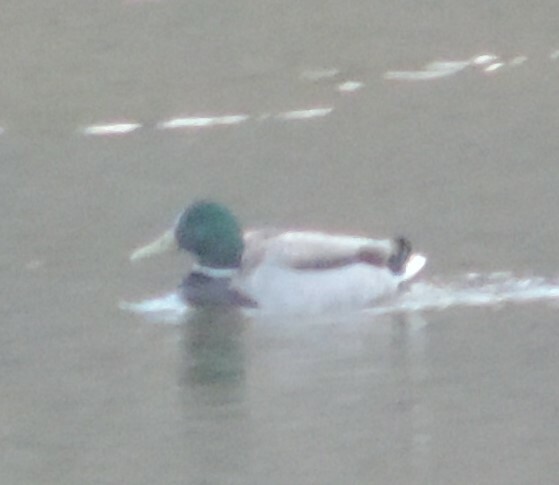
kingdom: Animalia
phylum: Chordata
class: Aves
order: Anseriformes
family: Anatidae
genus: Anas
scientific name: Anas platyrhynchos
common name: Mallard
